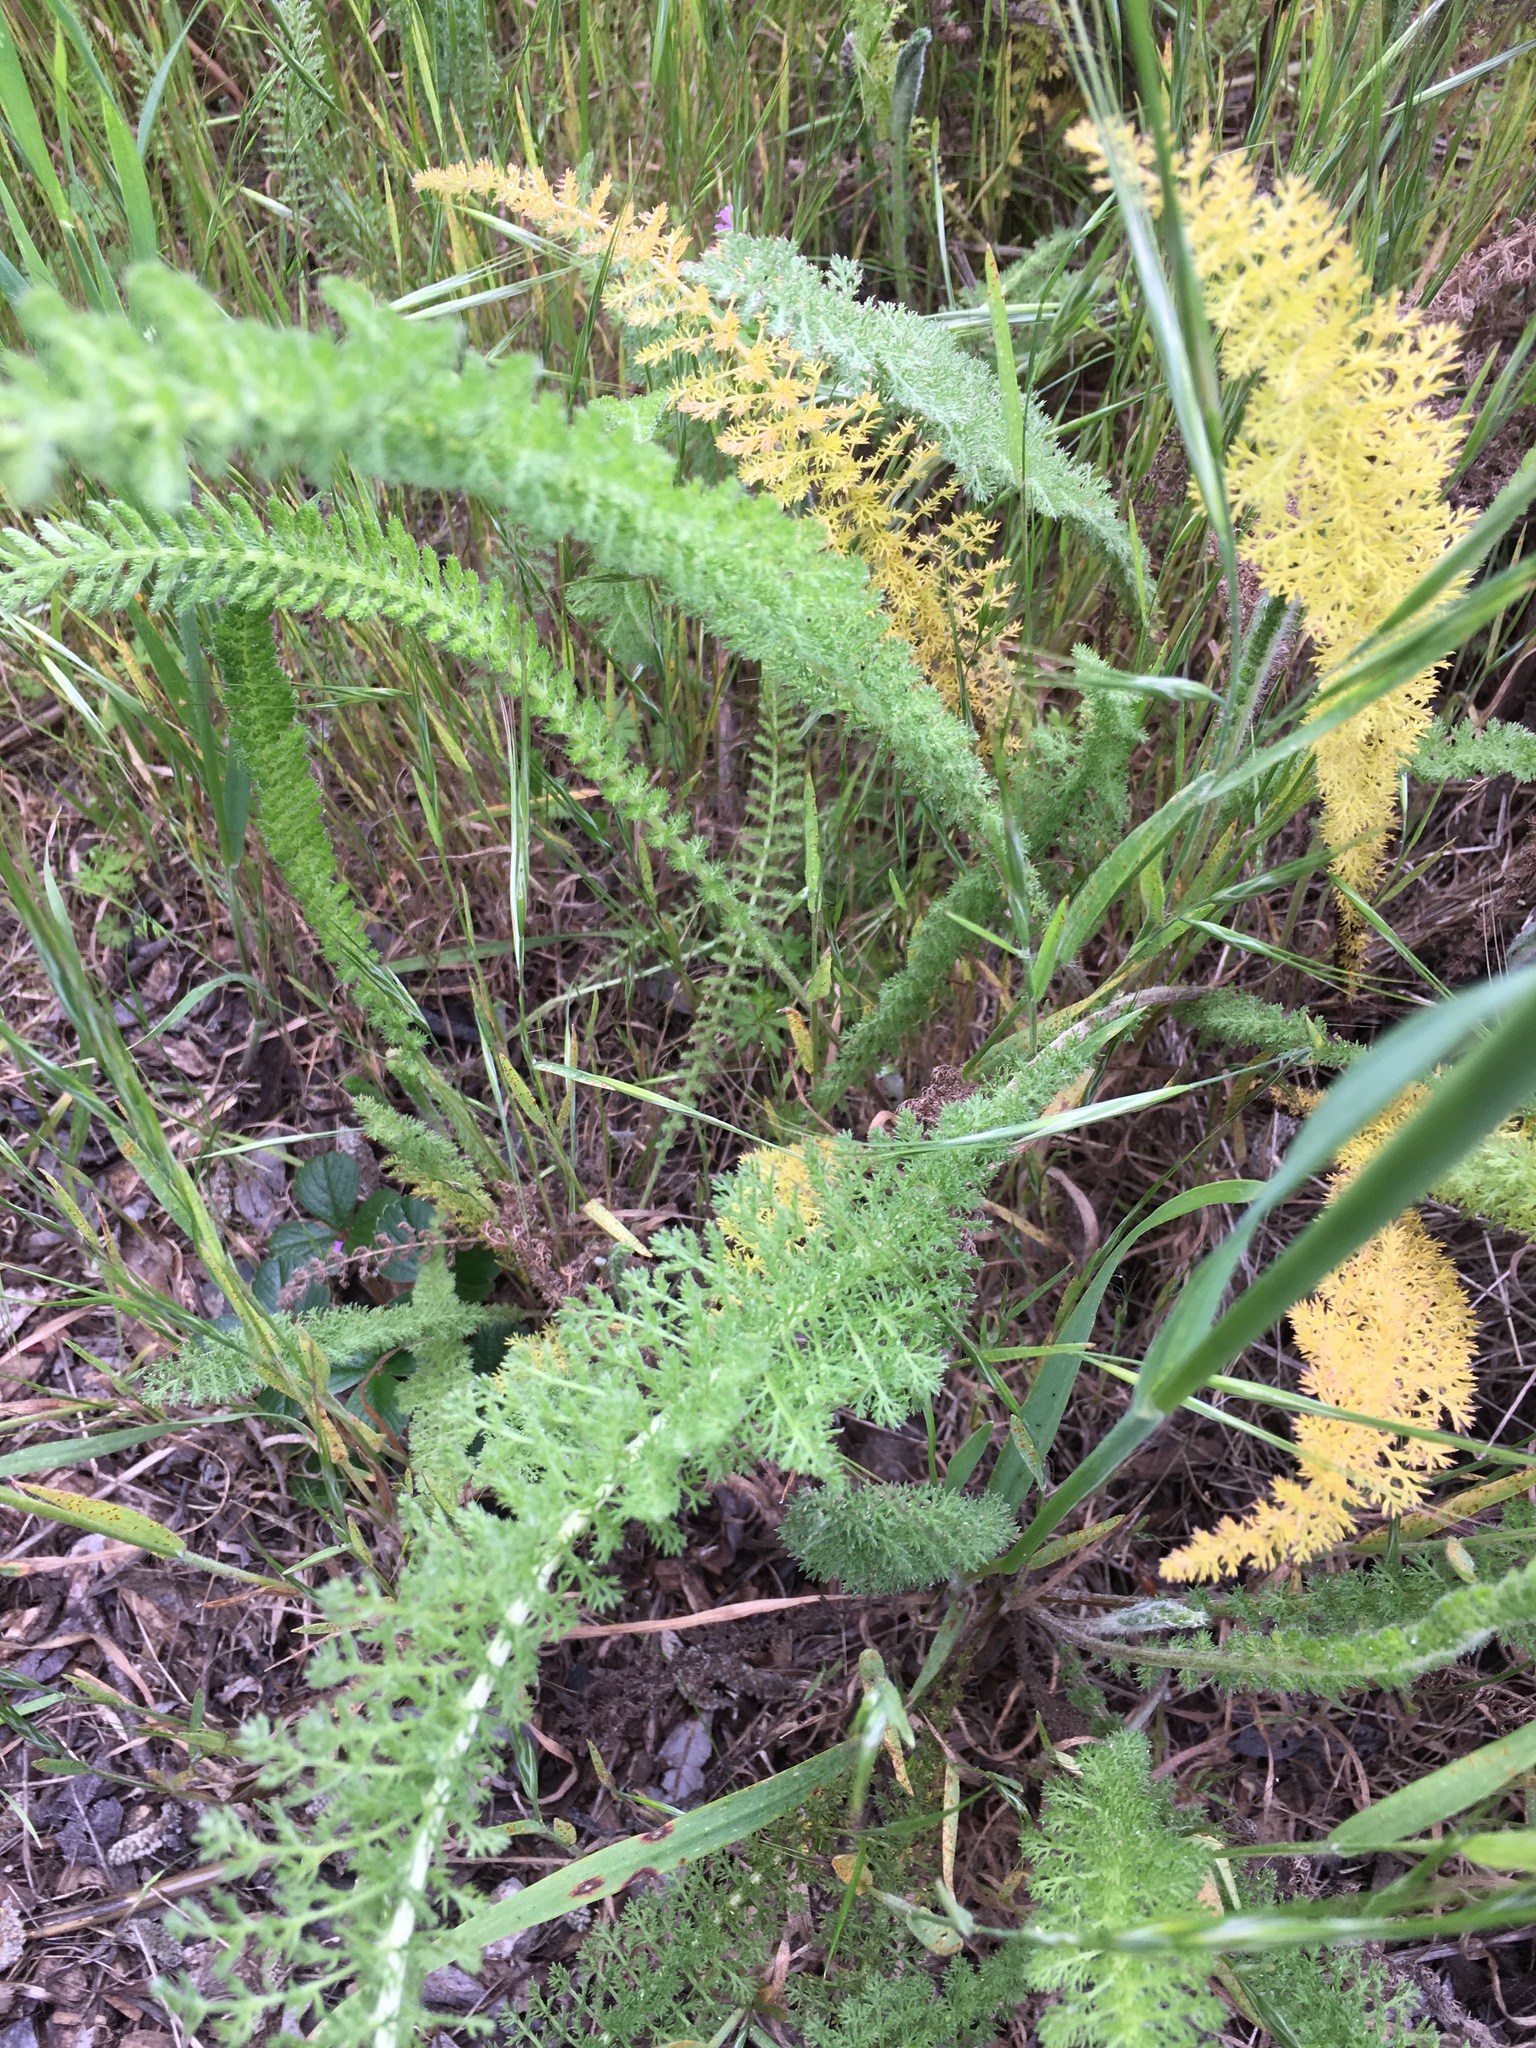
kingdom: Plantae
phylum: Tracheophyta
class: Magnoliopsida
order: Asterales
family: Asteraceae
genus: Achillea
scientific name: Achillea millefolium
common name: Yarrow
